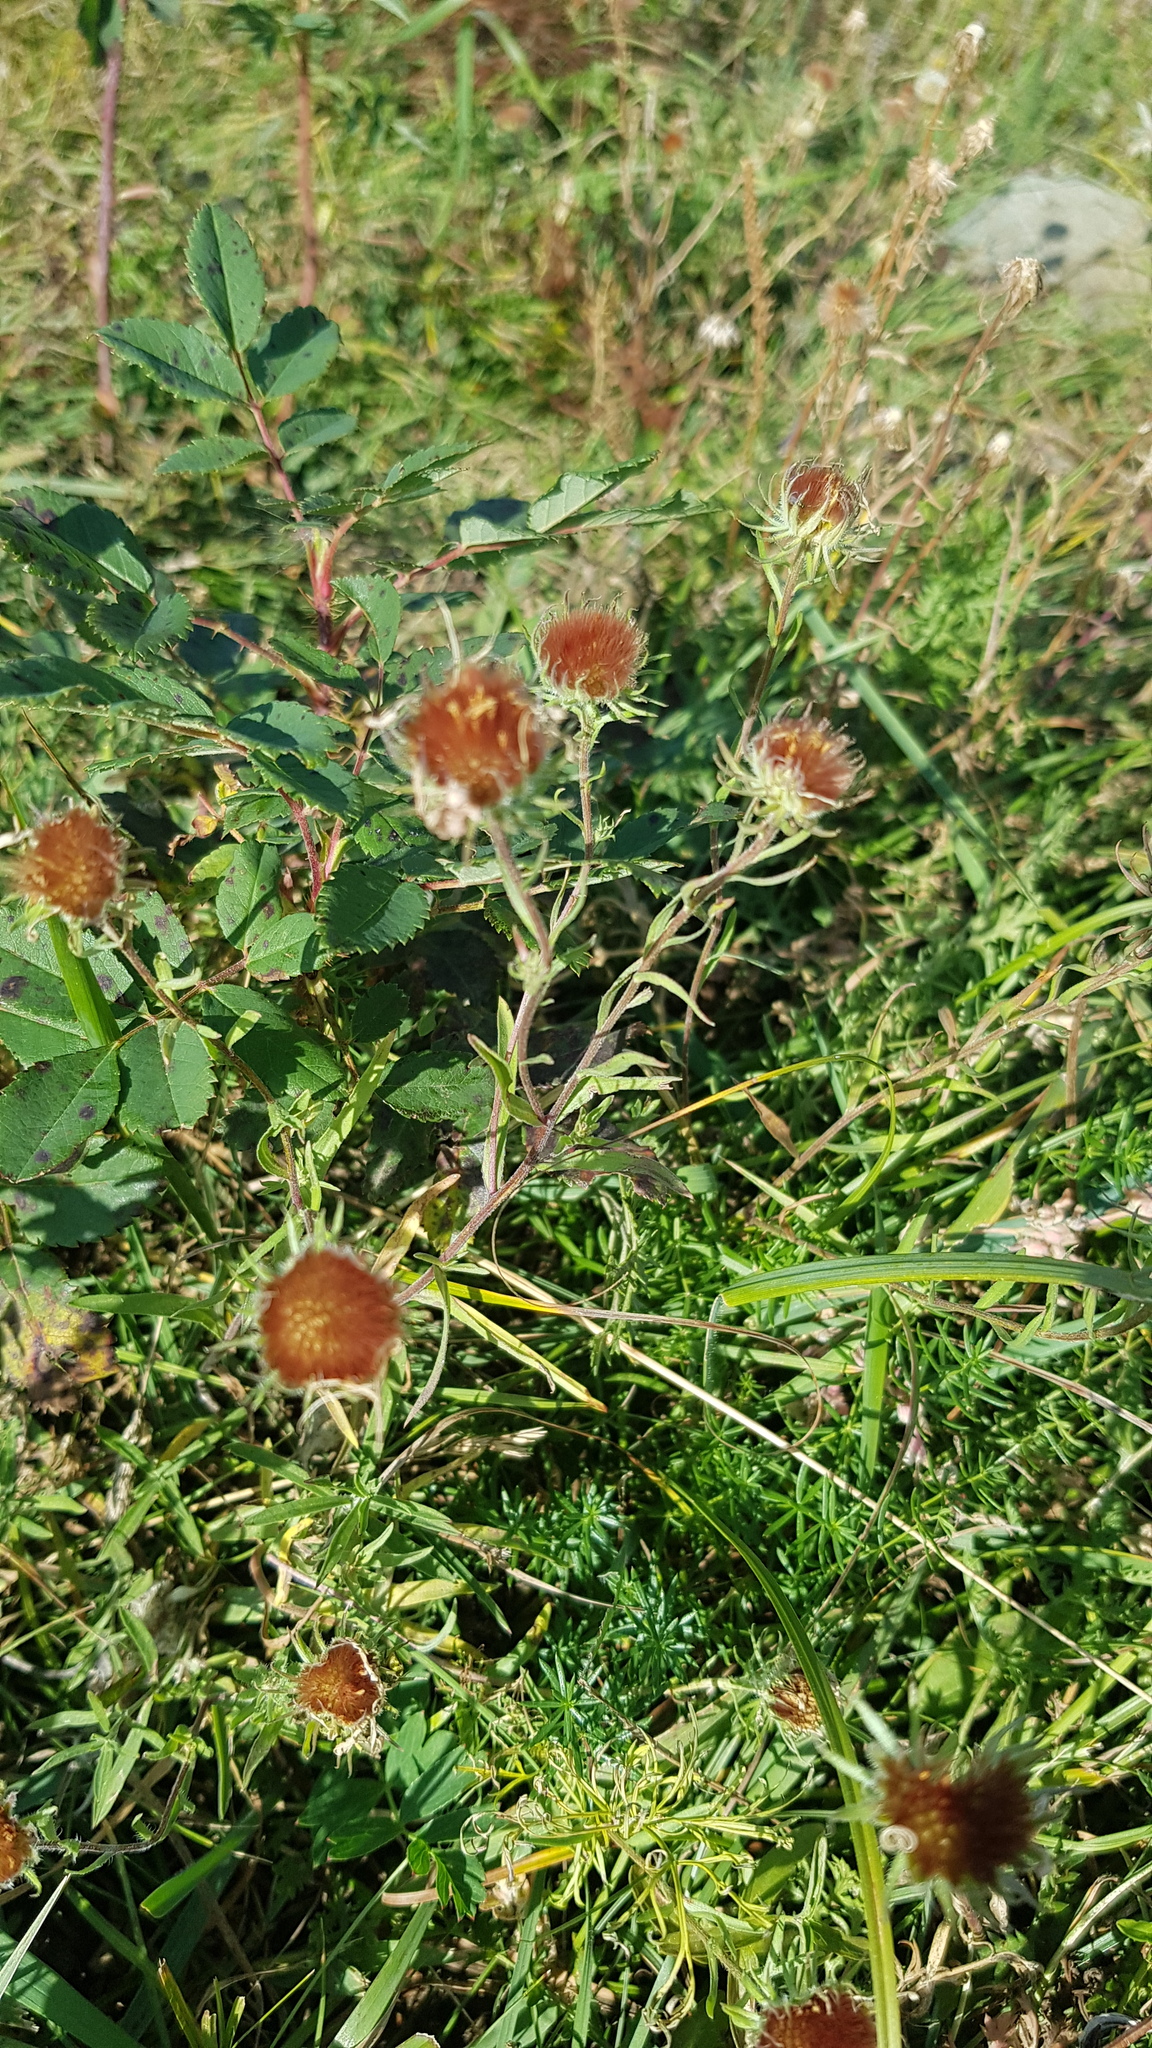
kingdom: Plantae
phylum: Tracheophyta
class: Magnoliopsida
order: Asterales
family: Asteraceae
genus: Heteropappus
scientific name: Heteropappus altaicus
